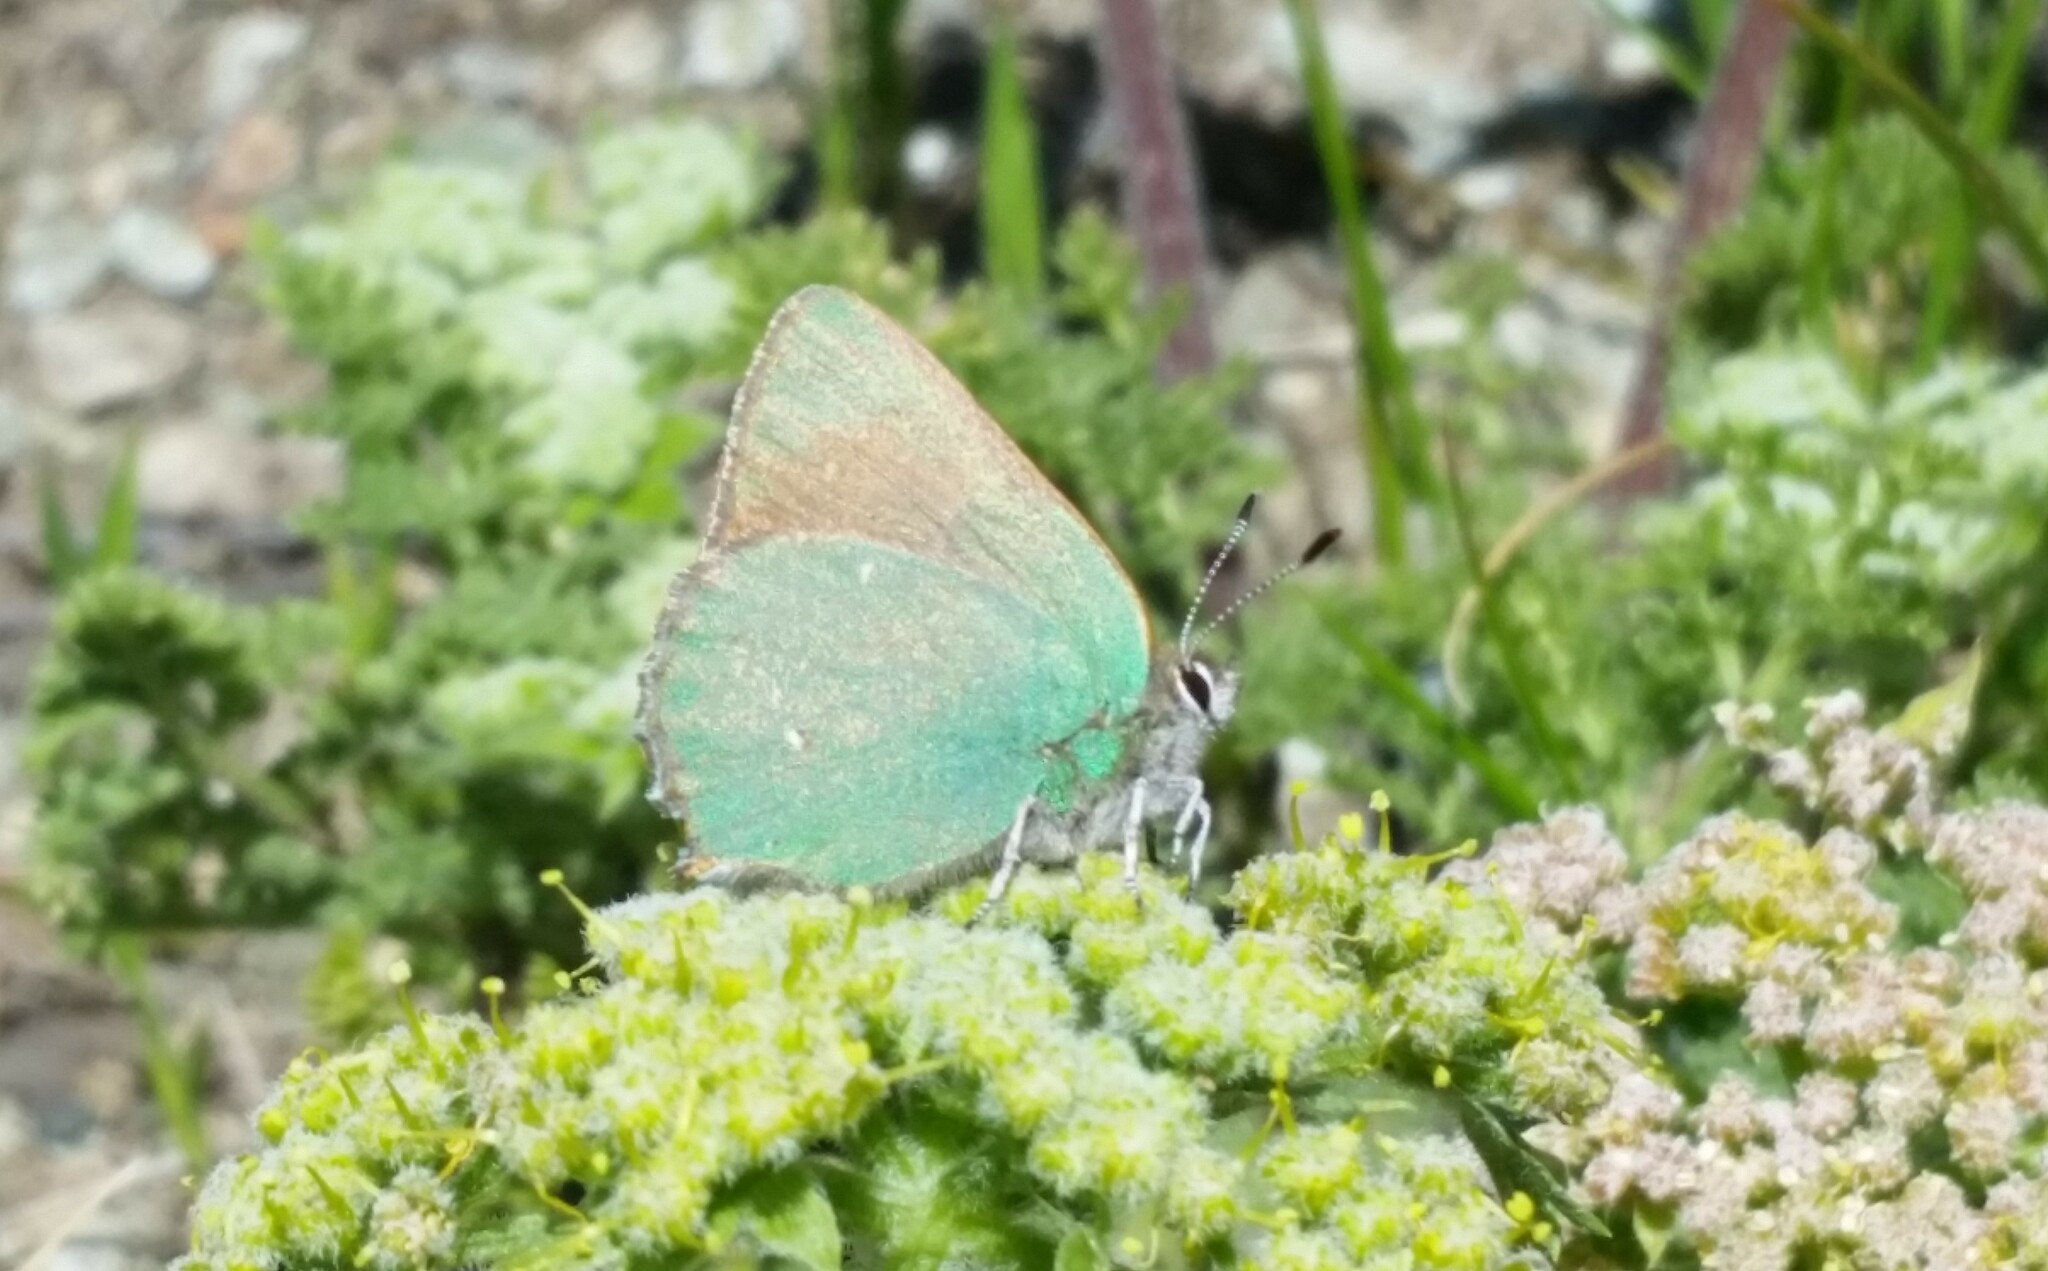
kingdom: Plantae
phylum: Tracheophyta
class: Magnoliopsida
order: Apiales
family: Apiaceae
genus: Lomatium
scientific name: Lomatium dasycarpum
